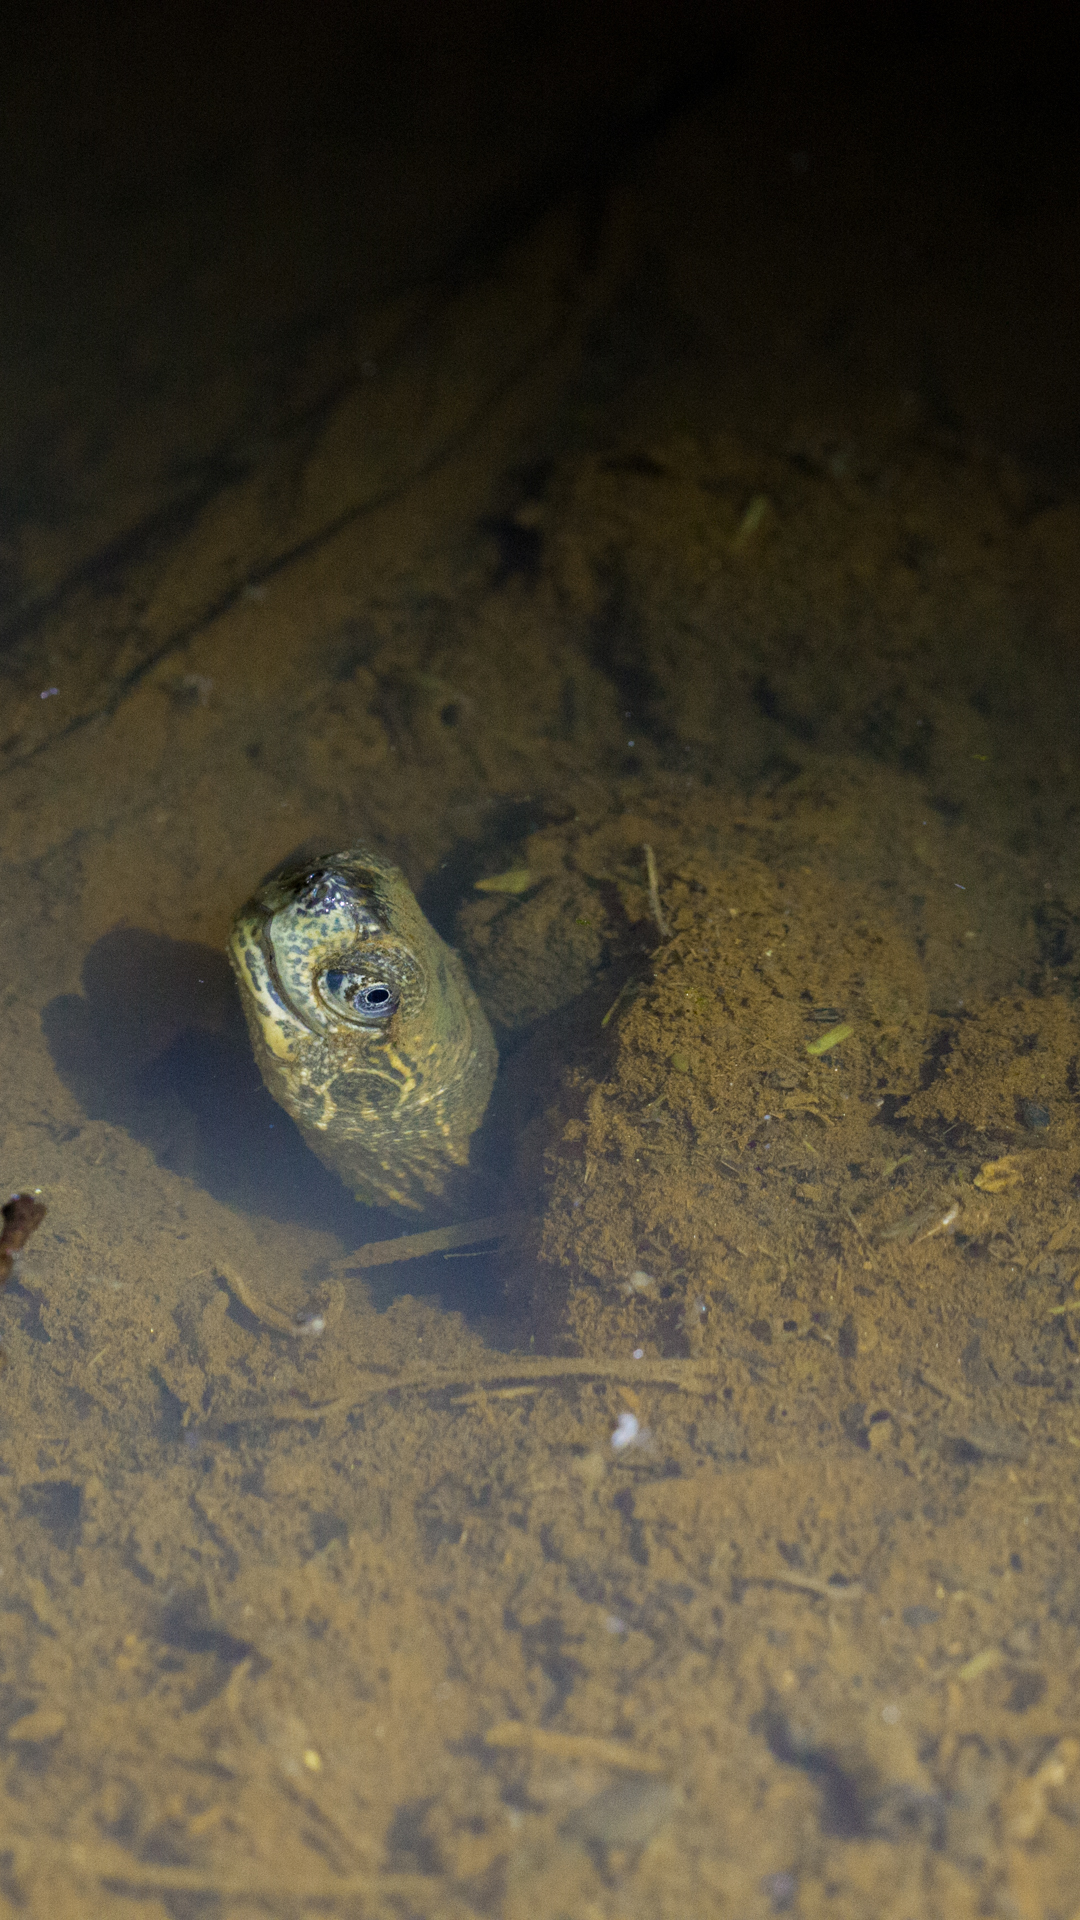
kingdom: Animalia
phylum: Chordata
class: Testudines
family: Geoemydidae
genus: Melanochelys
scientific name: Melanochelys trijuga
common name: Indian black turtle
